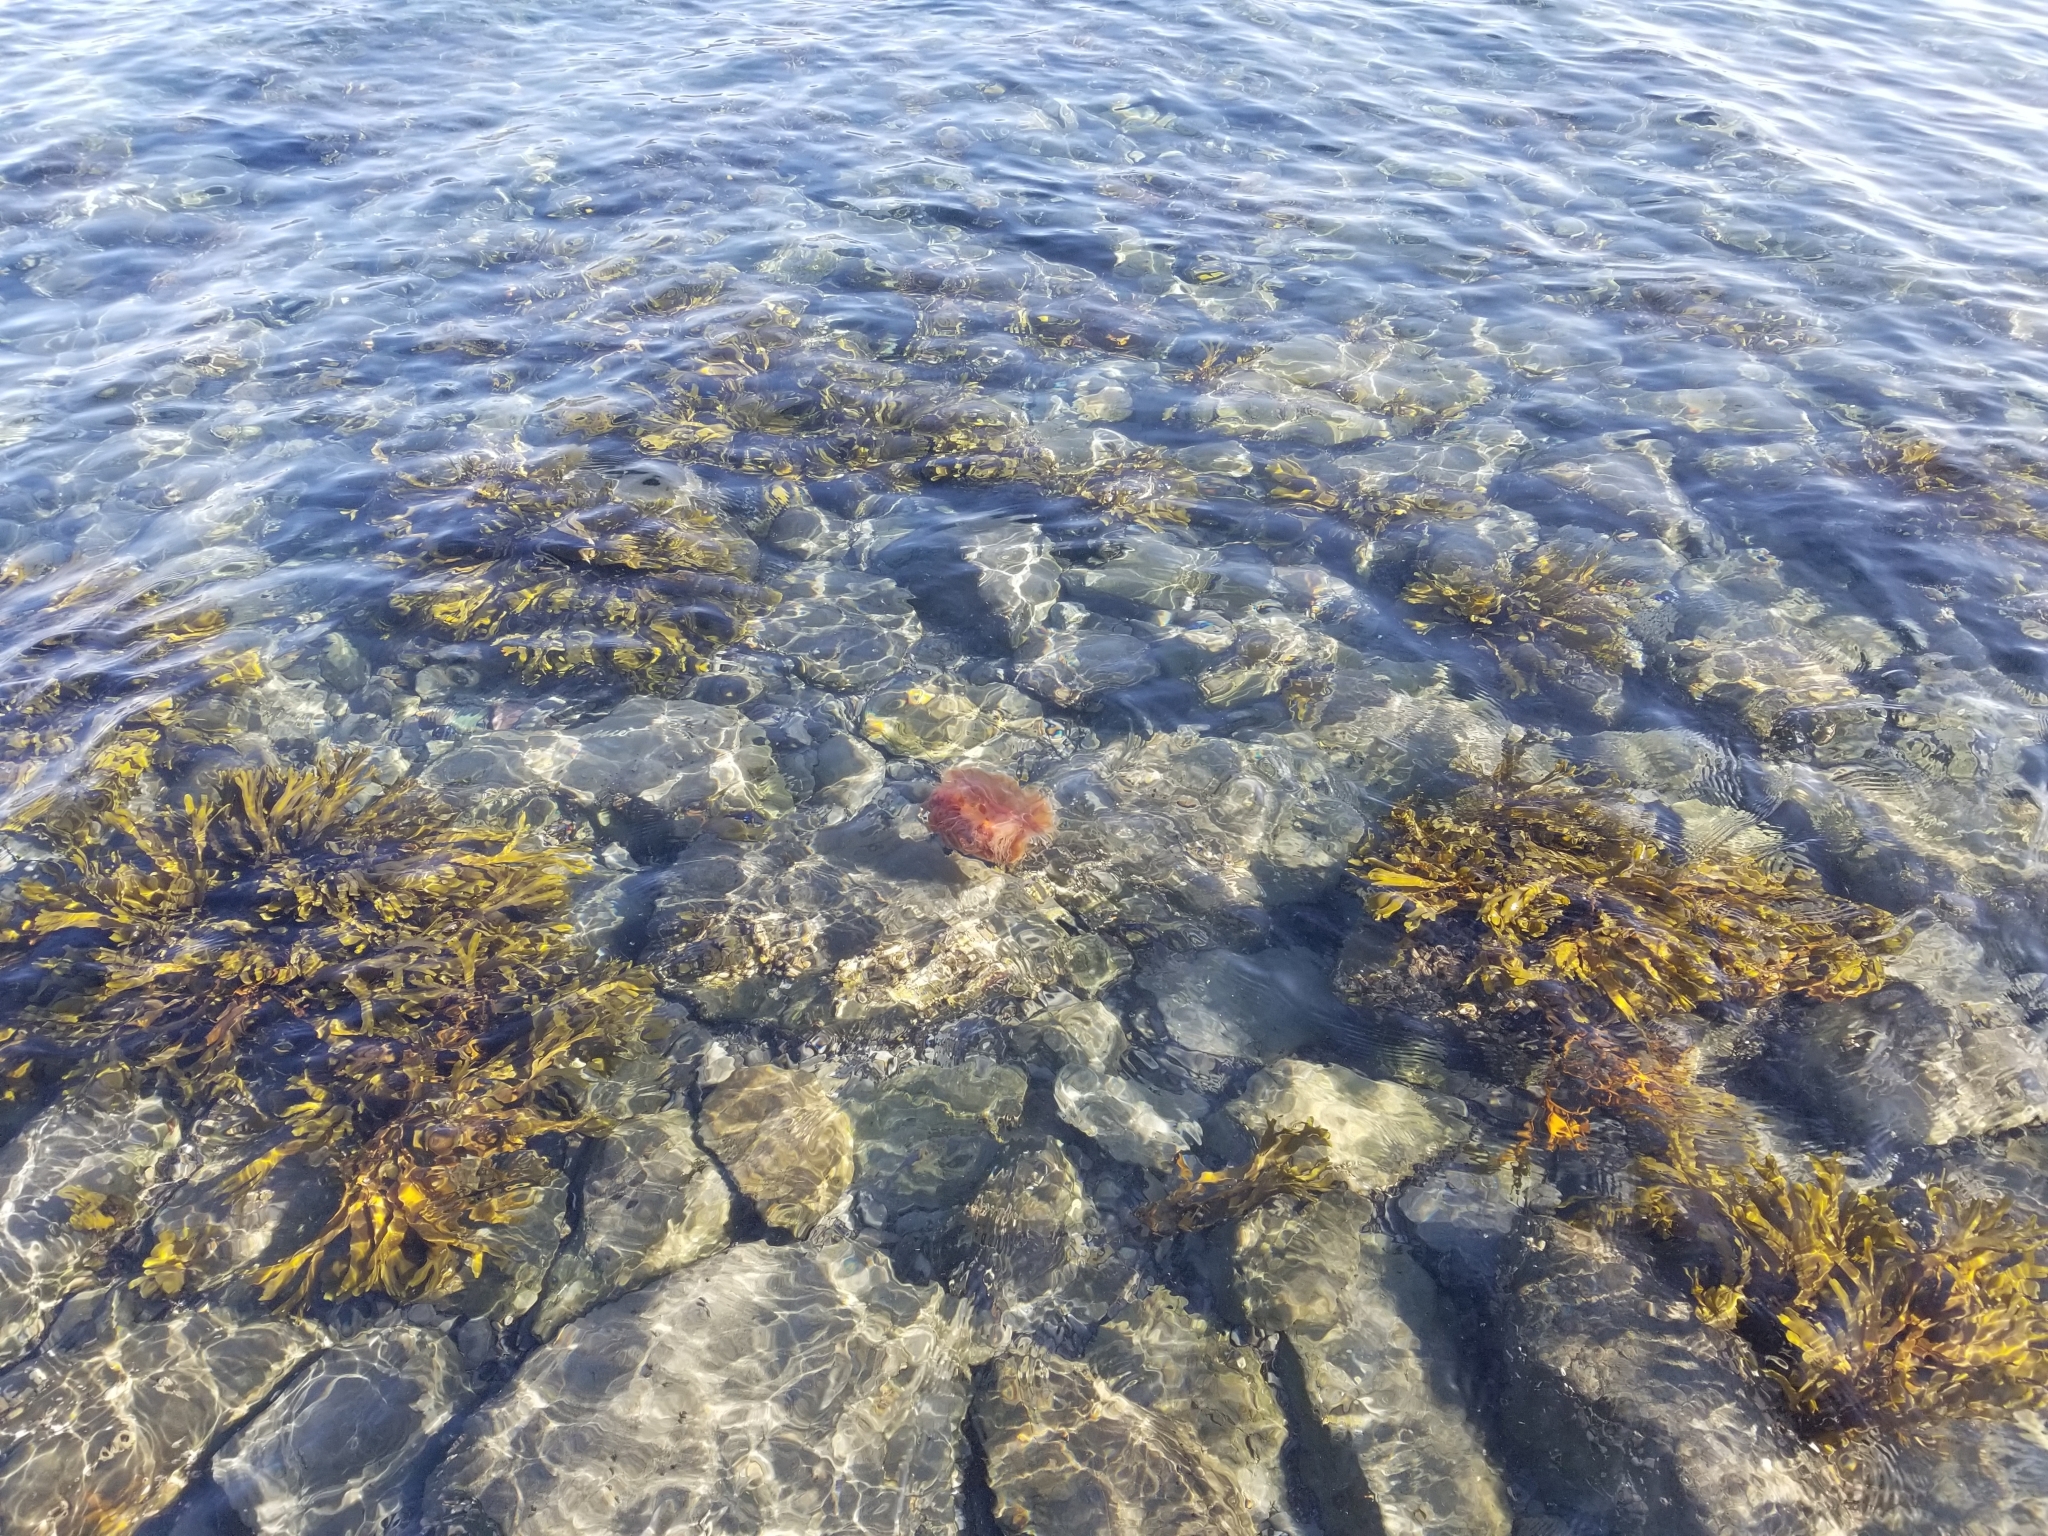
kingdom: Animalia
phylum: Cnidaria
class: Scyphozoa
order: Semaeostomeae
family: Cyaneidae
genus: Cyanea
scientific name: Cyanea ferruginea
